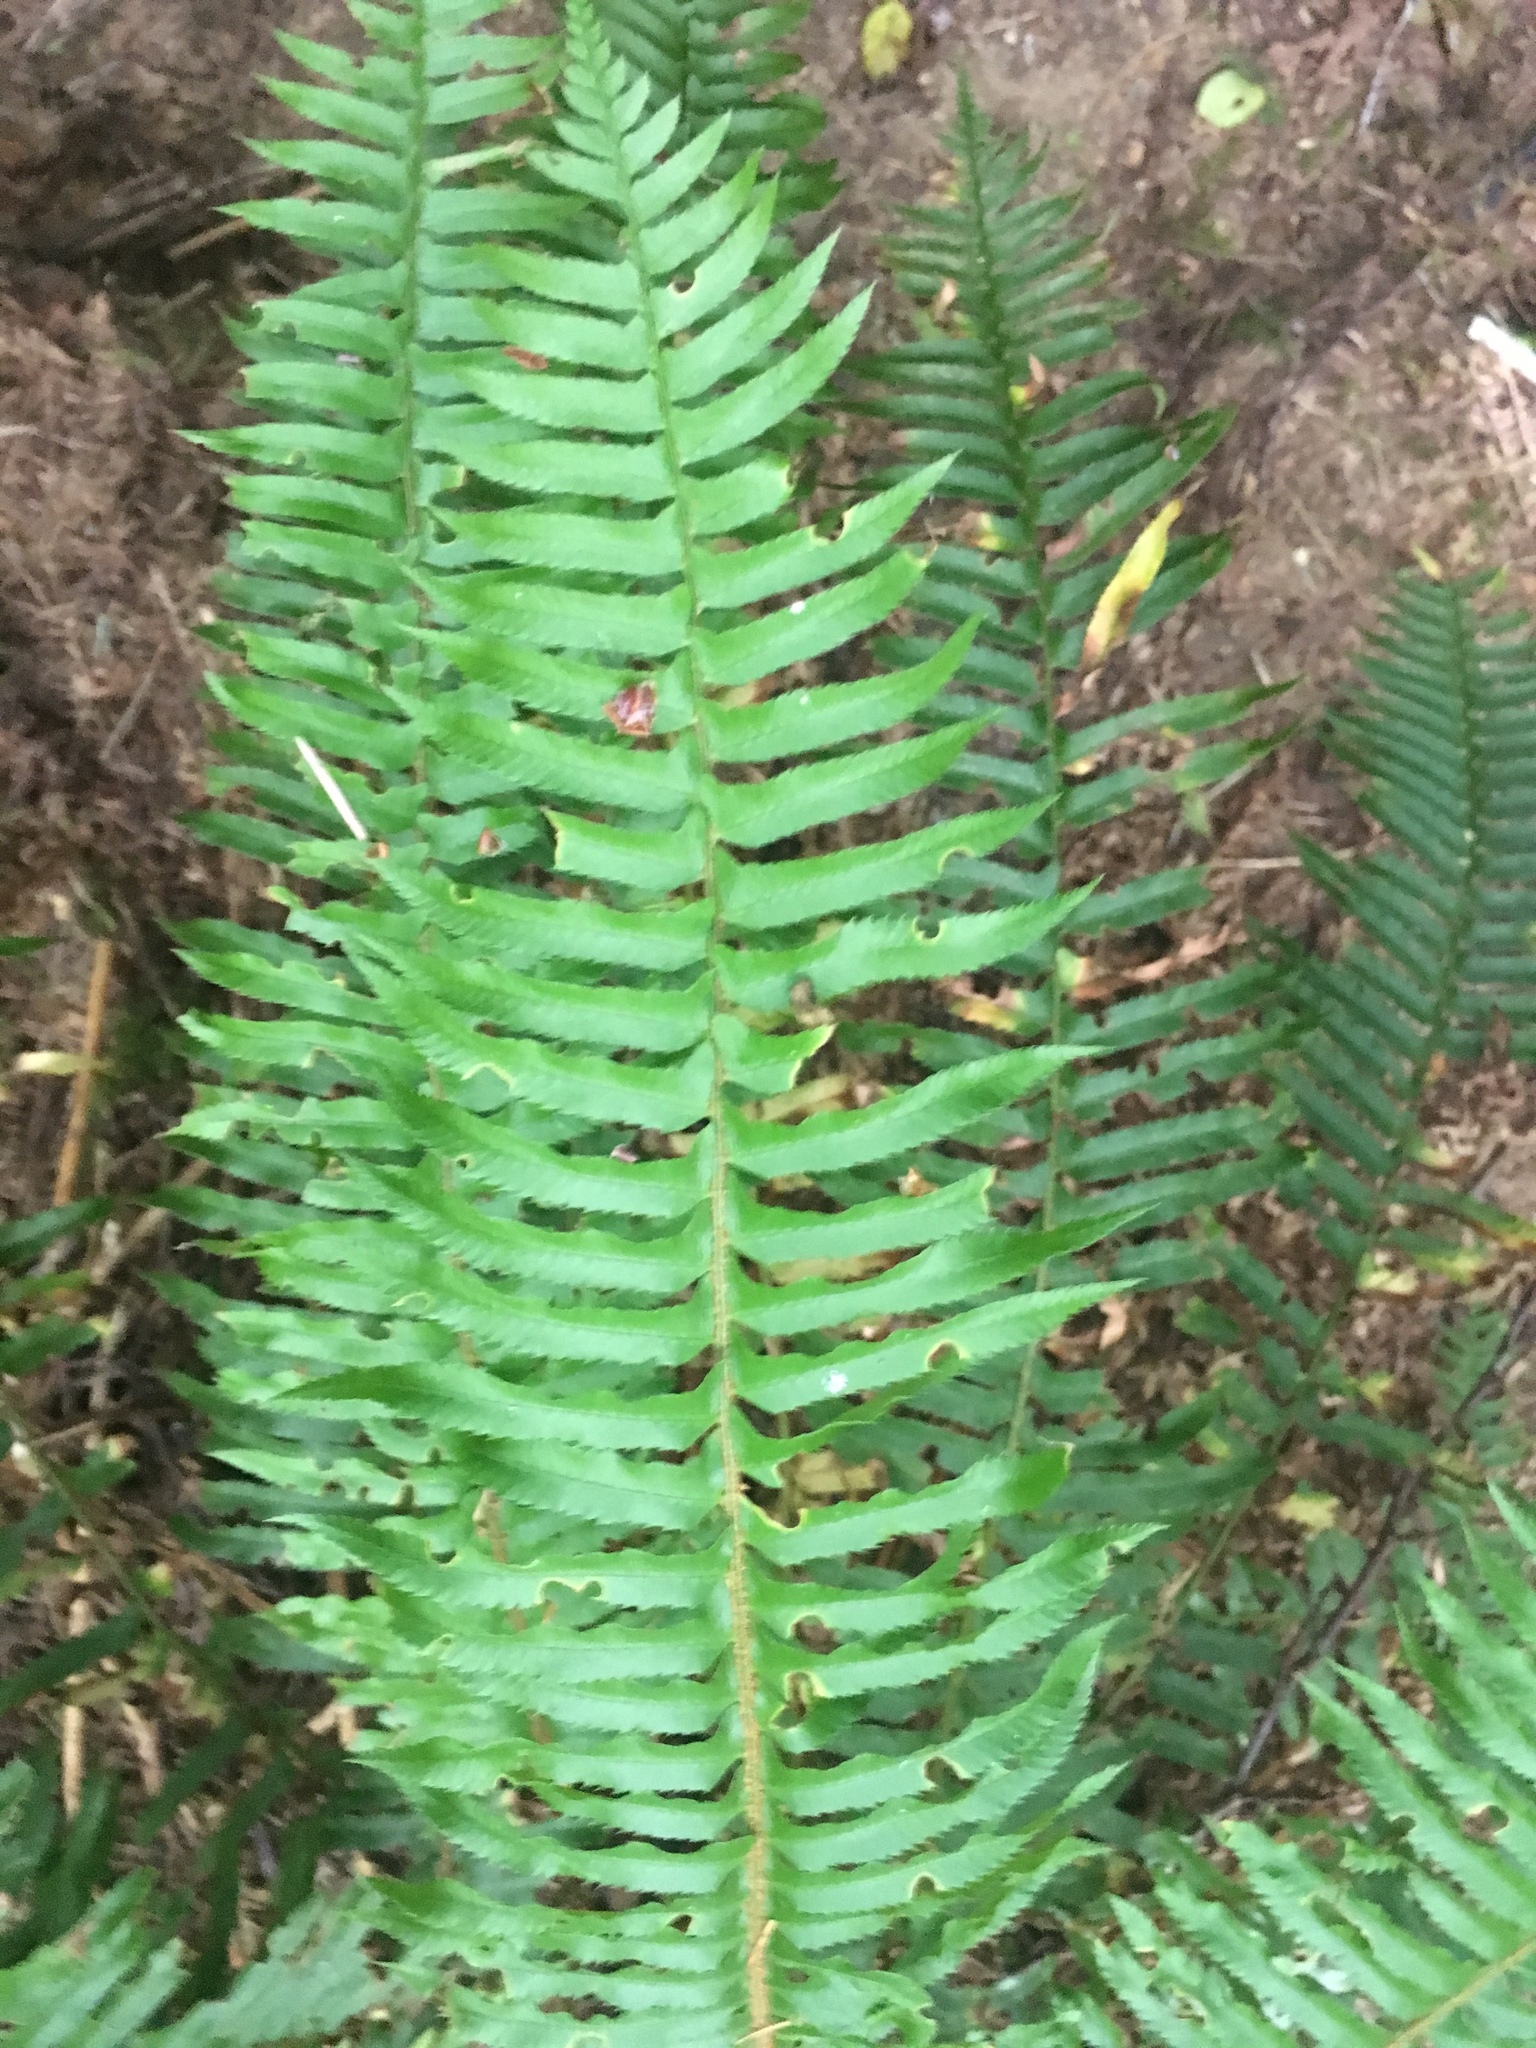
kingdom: Plantae
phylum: Tracheophyta
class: Polypodiopsida
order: Polypodiales
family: Dryopteridaceae
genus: Polystichum
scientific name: Polystichum munitum
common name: Western sword-fern
